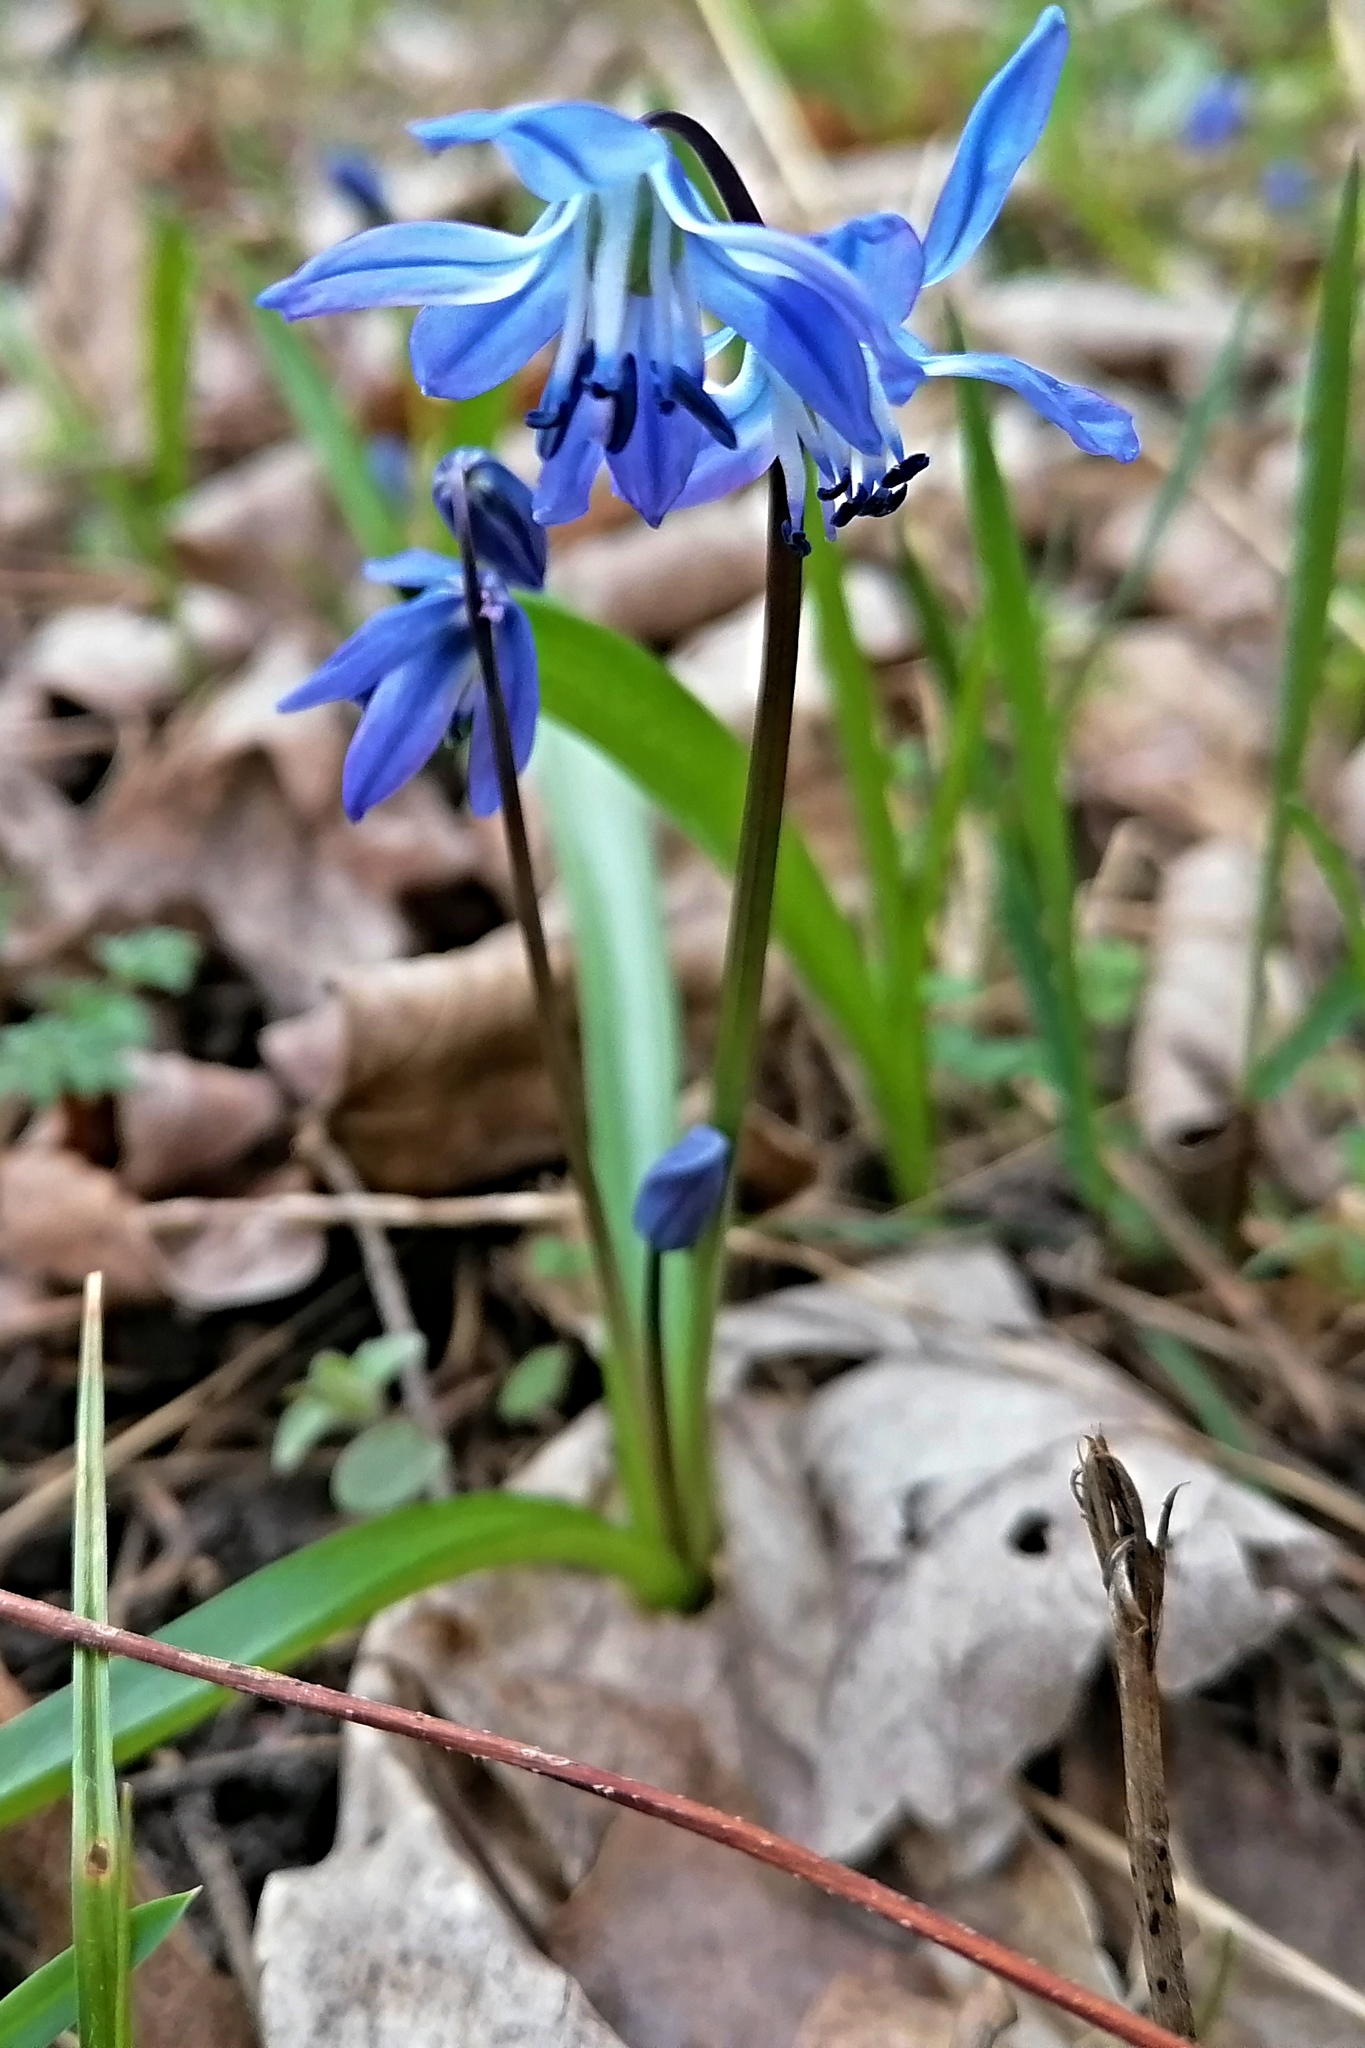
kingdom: Plantae
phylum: Tracheophyta
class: Liliopsida
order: Asparagales
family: Asparagaceae
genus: Scilla
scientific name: Scilla siberica
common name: Siberian squill
